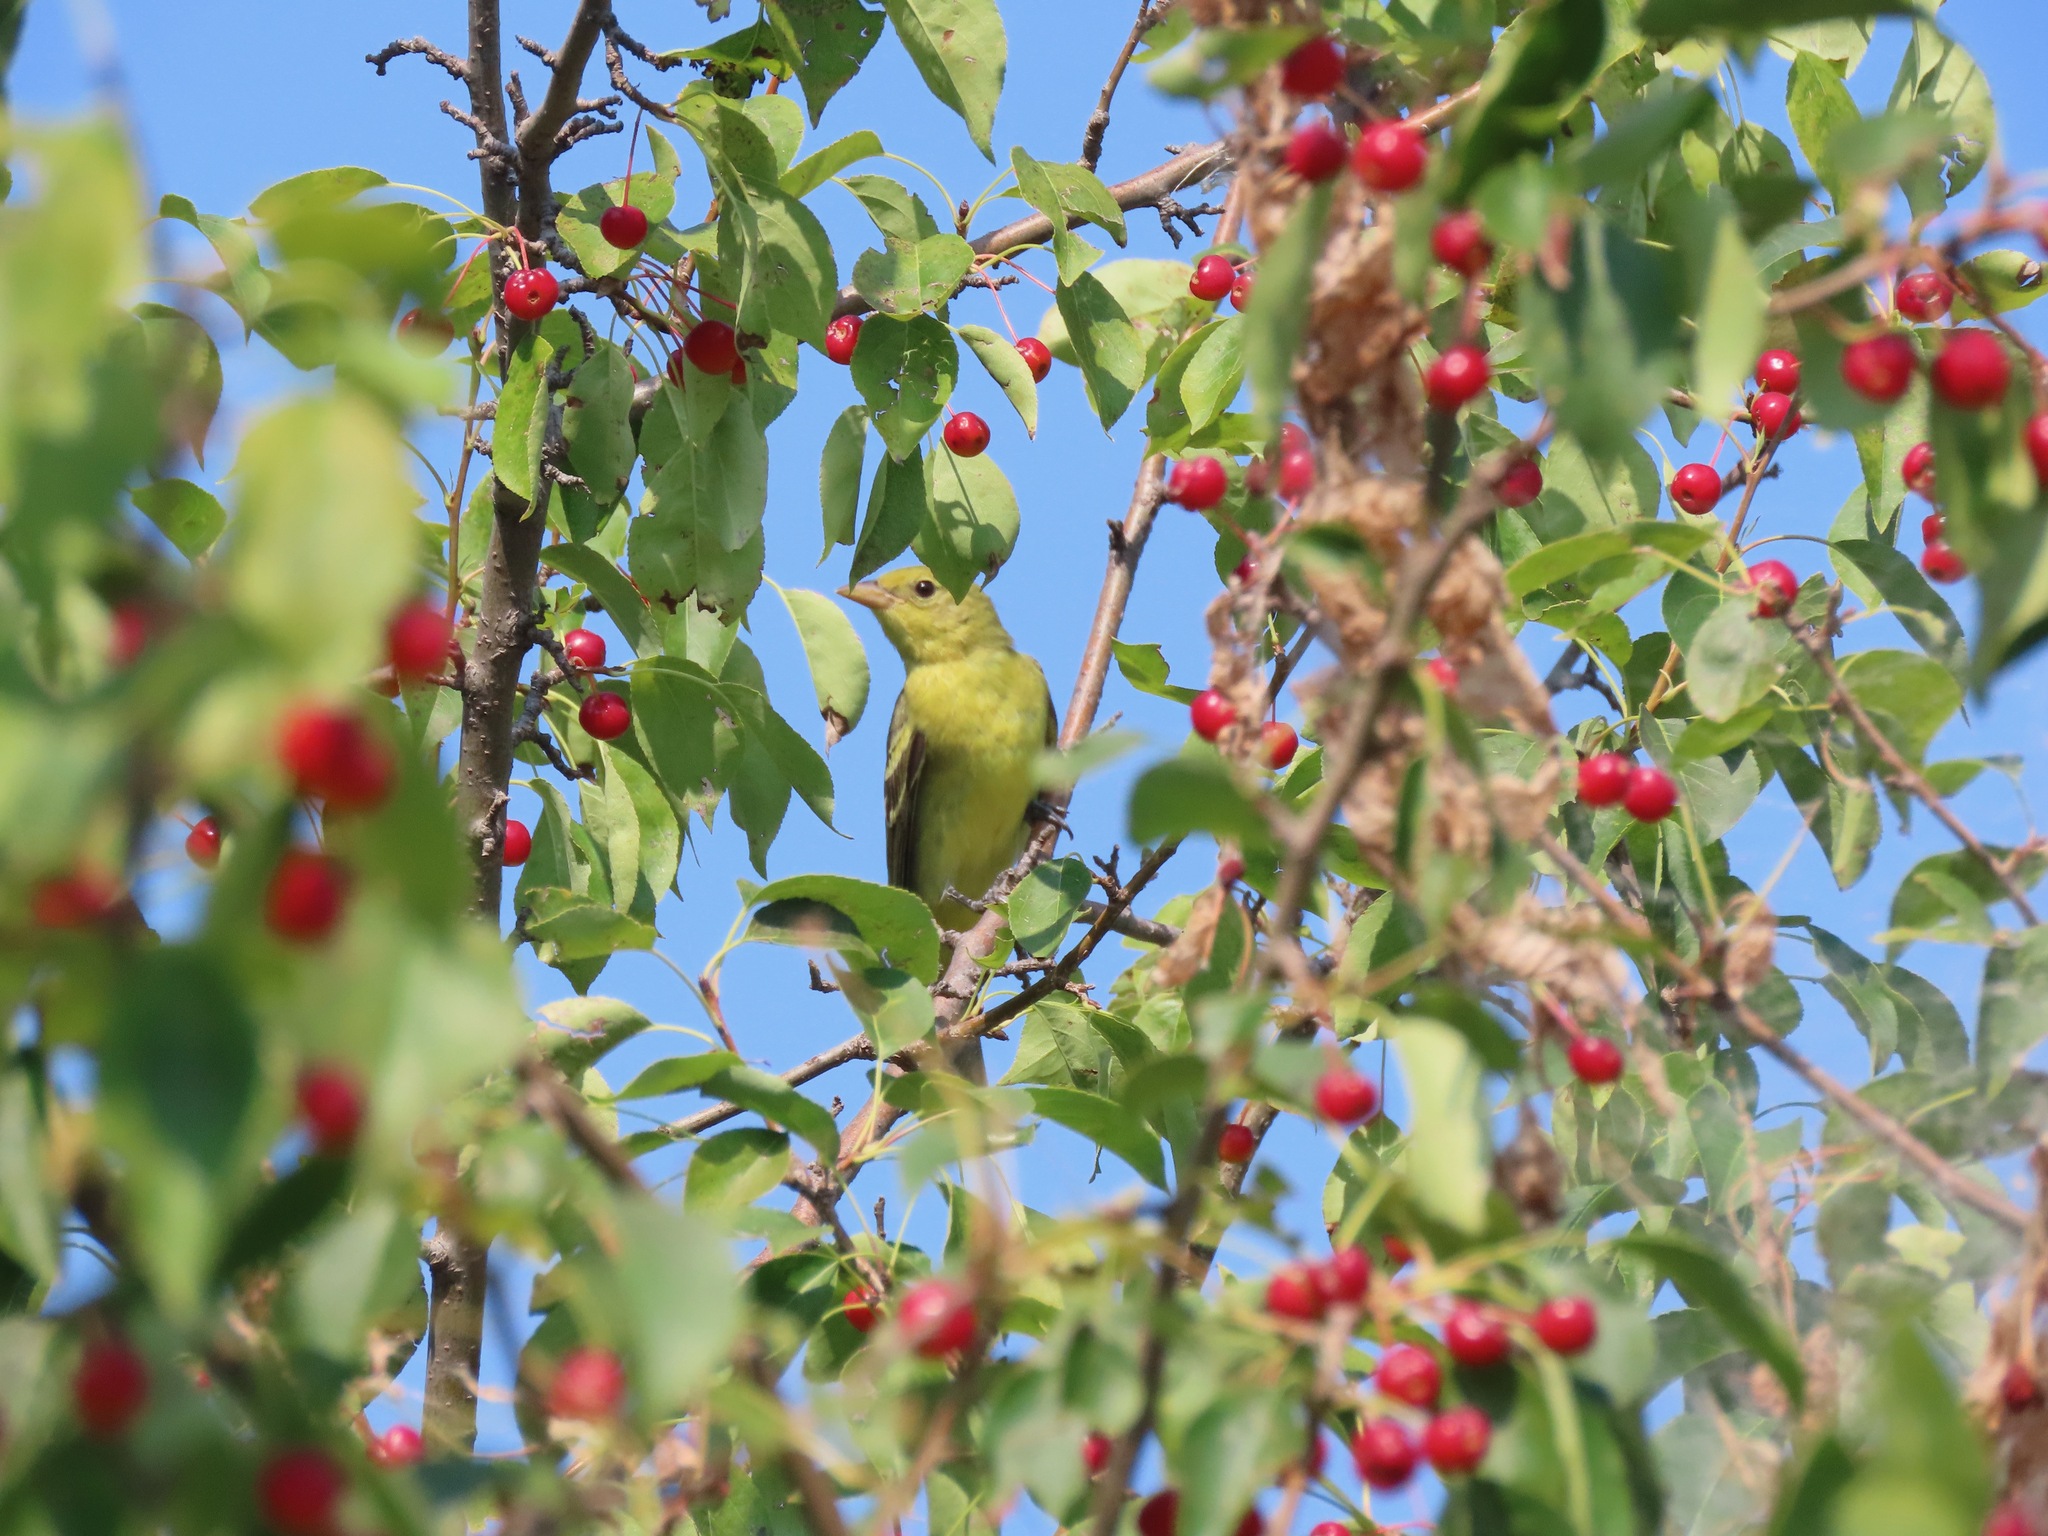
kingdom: Animalia
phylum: Chordata
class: Aves
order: Passeriformes
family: Cardinalidae
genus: Piranga
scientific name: Piranga ludoviciana
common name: Western tanager
